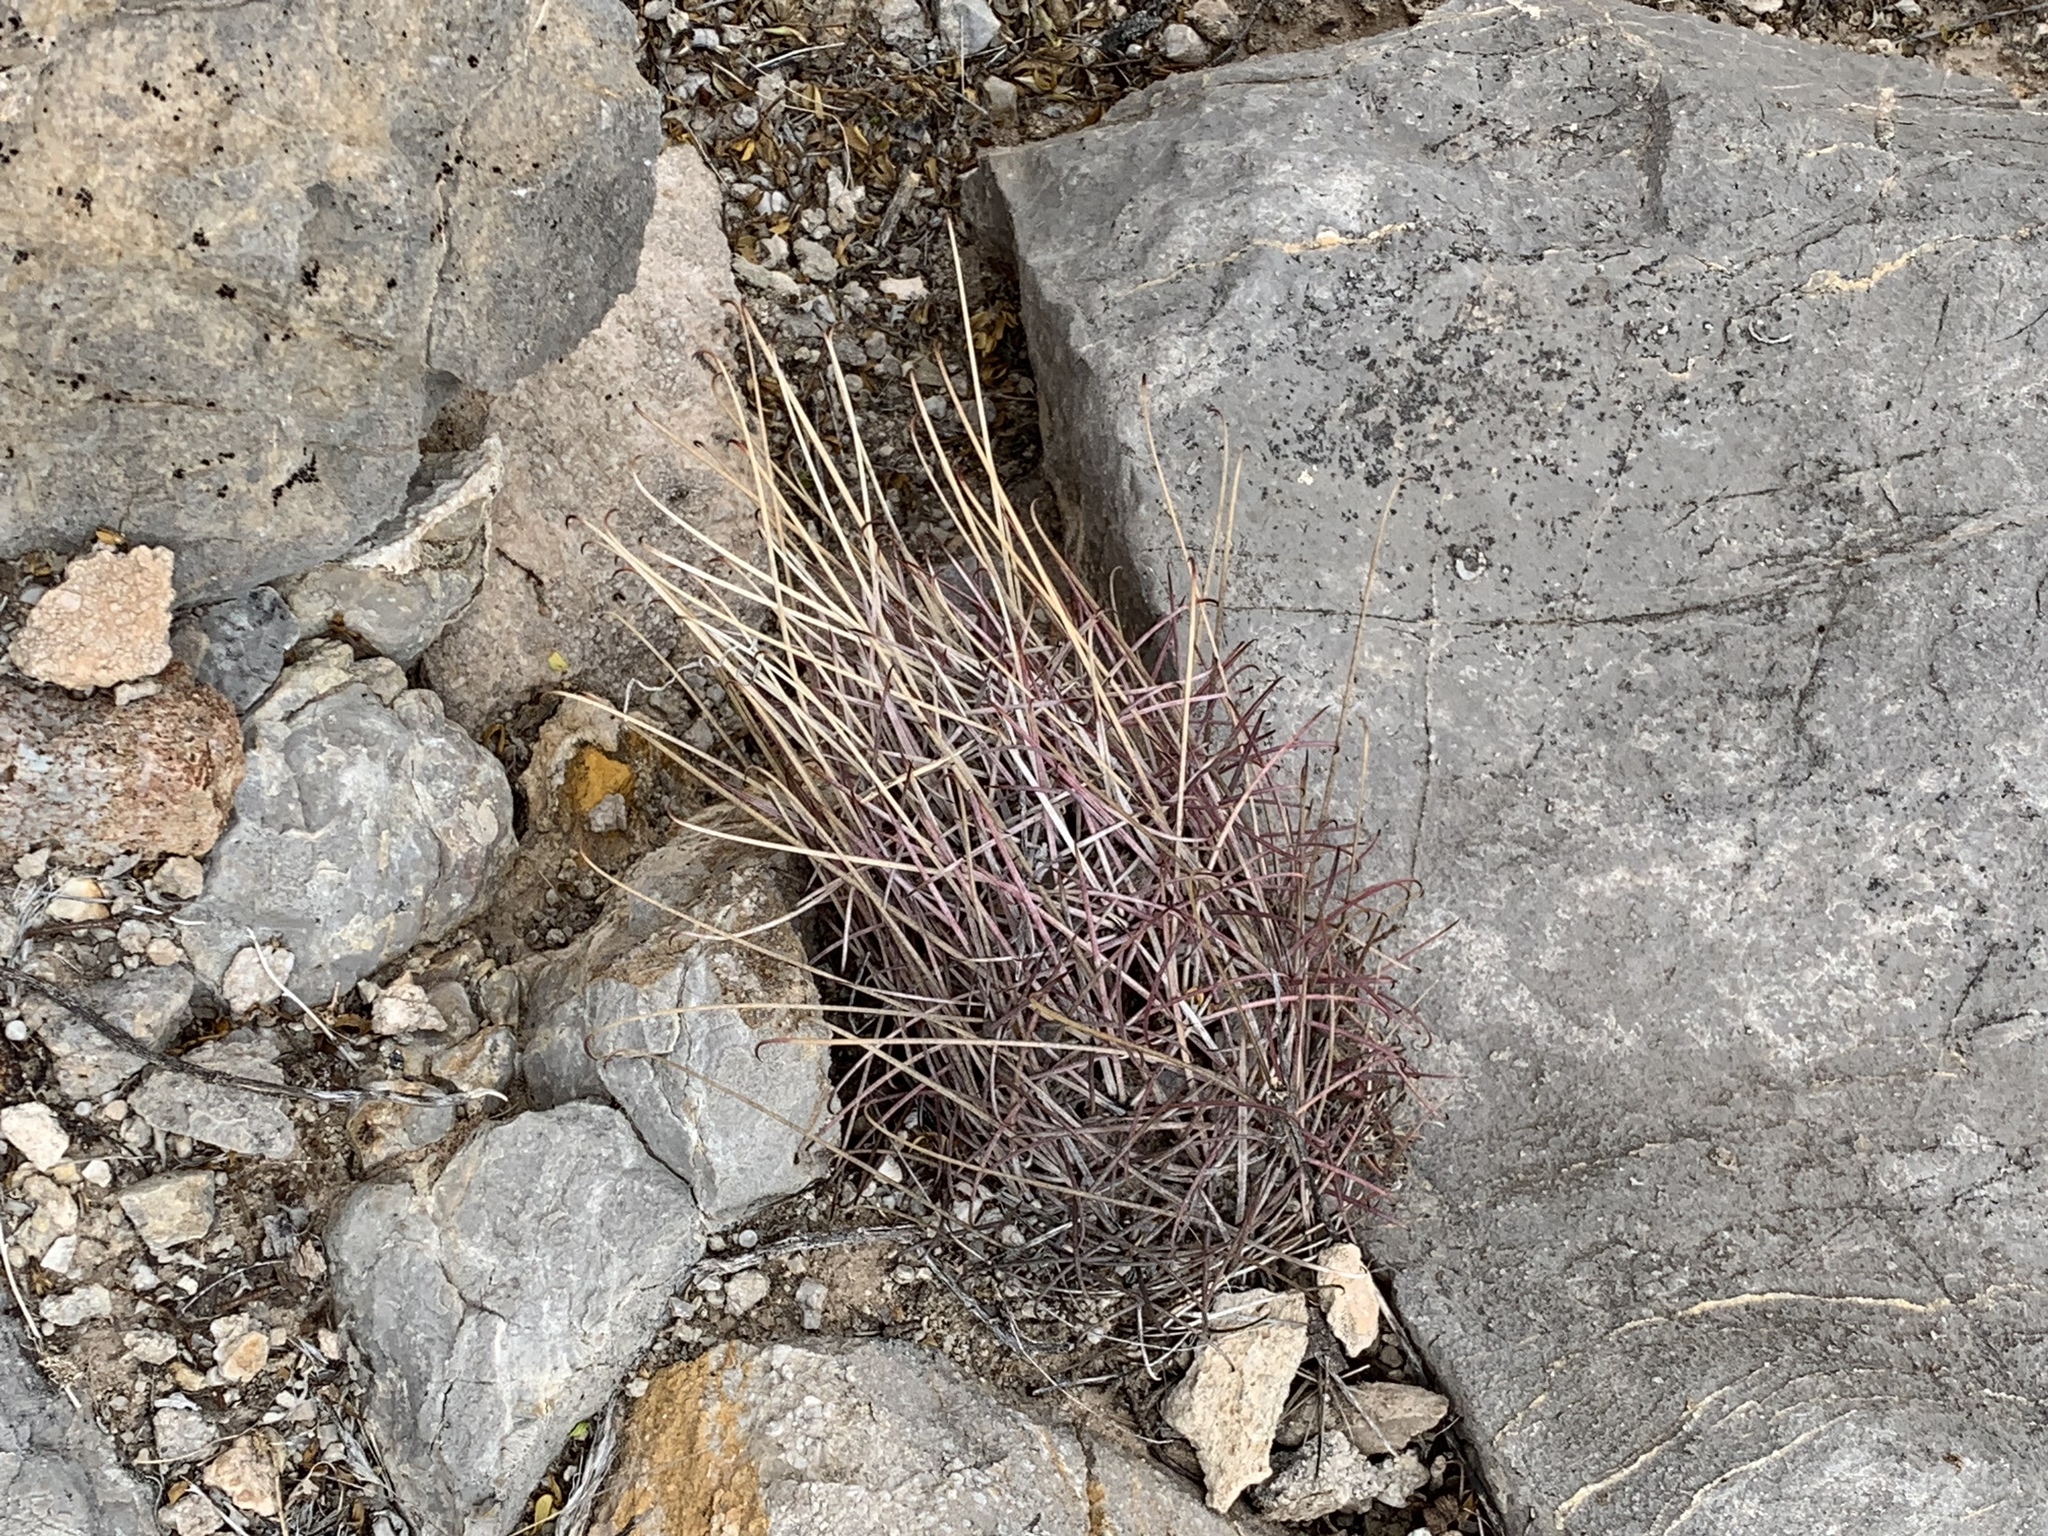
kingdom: Plantae
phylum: Tracheophyta
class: Magnoliopsida
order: Caryophyllales
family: Cactaceae
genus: Ferocactus
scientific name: Ferocactus uncinatus
